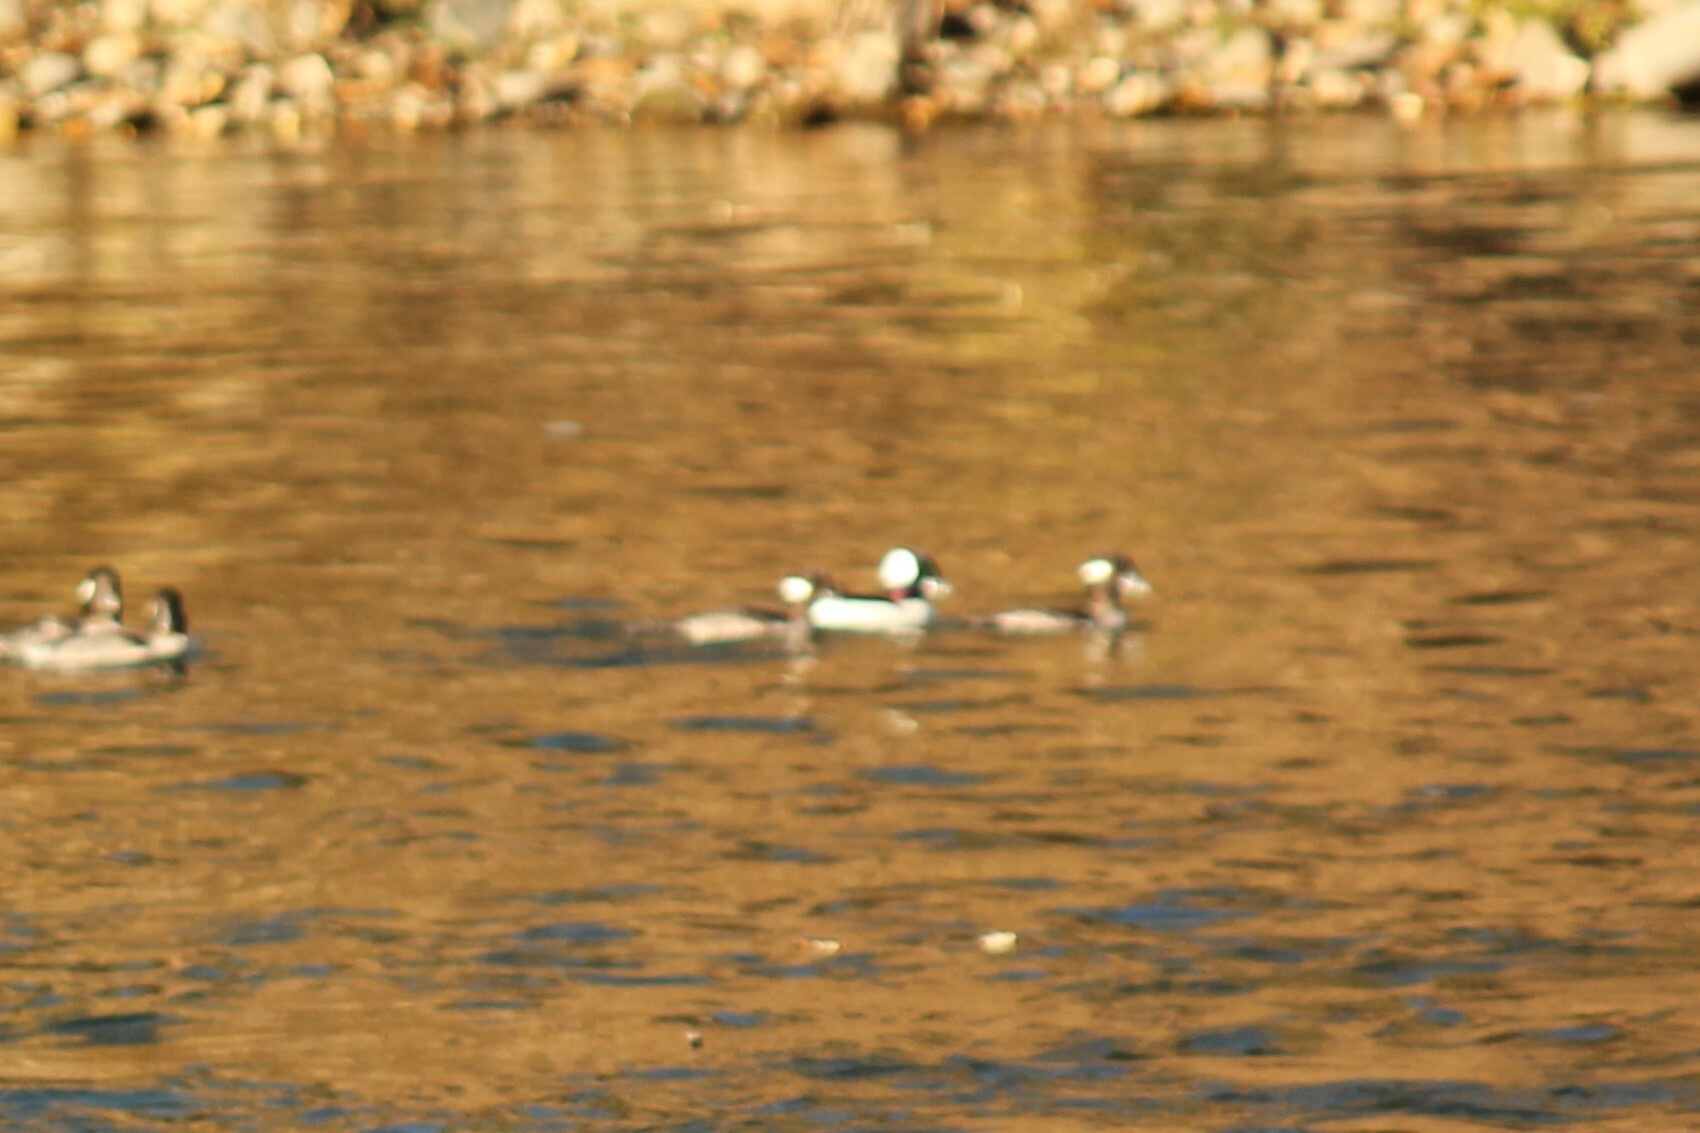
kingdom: Animalia
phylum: Chordata
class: Aves
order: Anseriformes
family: Anatidae
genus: Bucephala
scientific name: Bucephala albeola
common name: Bufflehead
